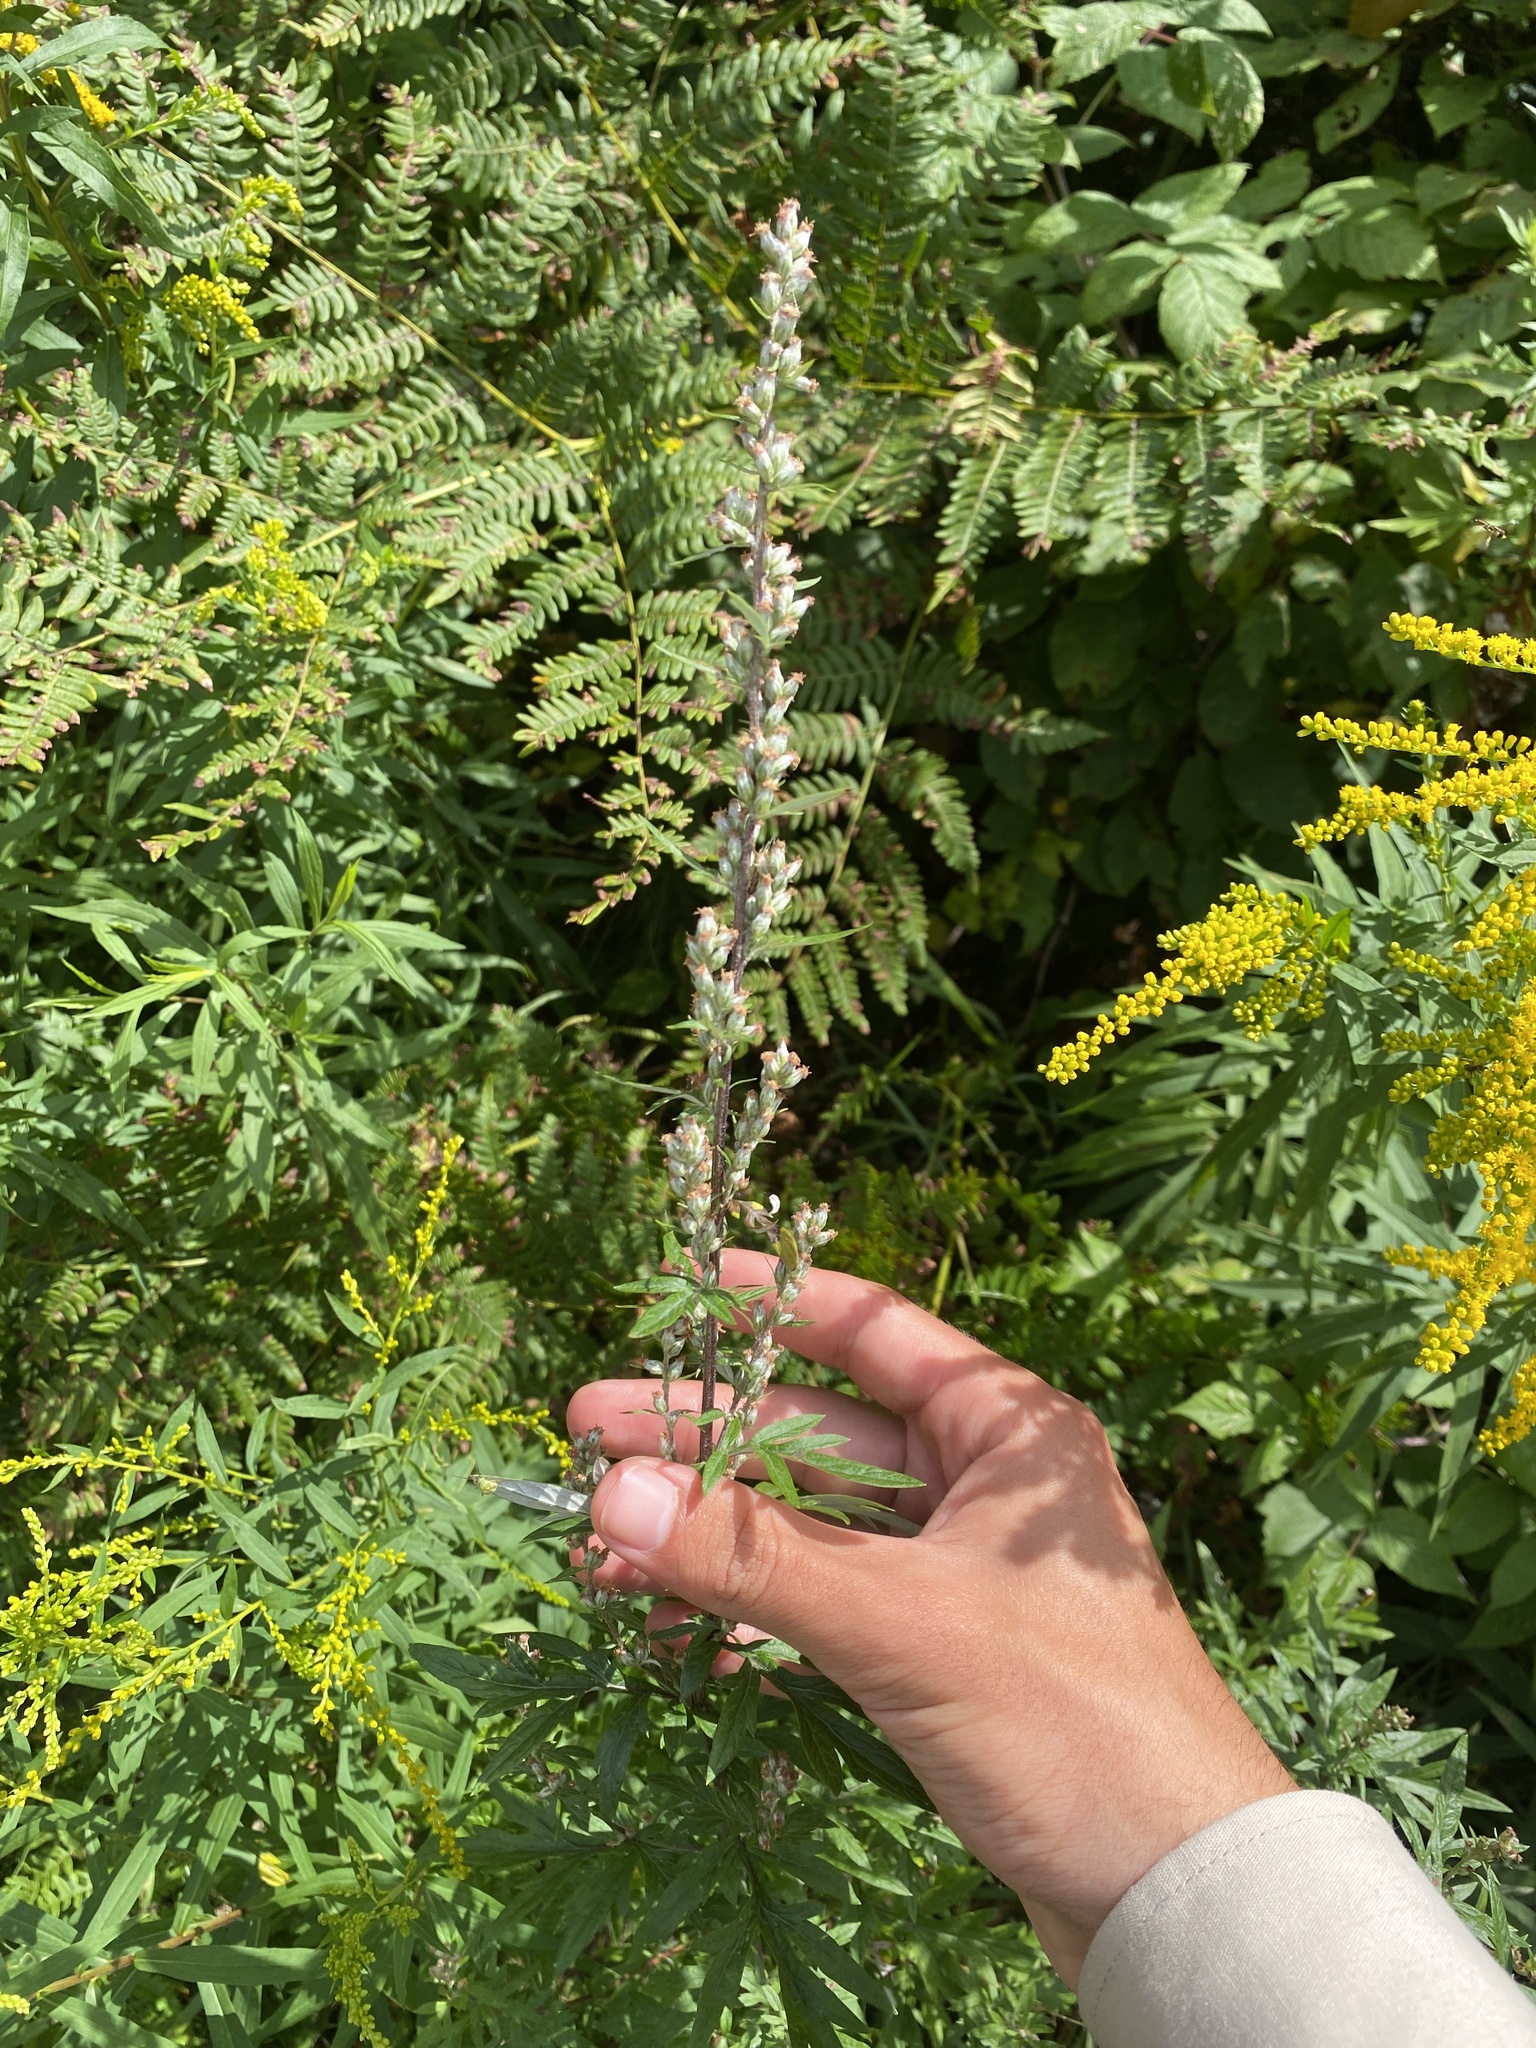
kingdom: Plantae
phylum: Tracheophyta
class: Magnoliopsida
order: Asterales
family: Asteraceae
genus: Artemisia
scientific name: Artemisia vulgaris
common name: Mugwort
